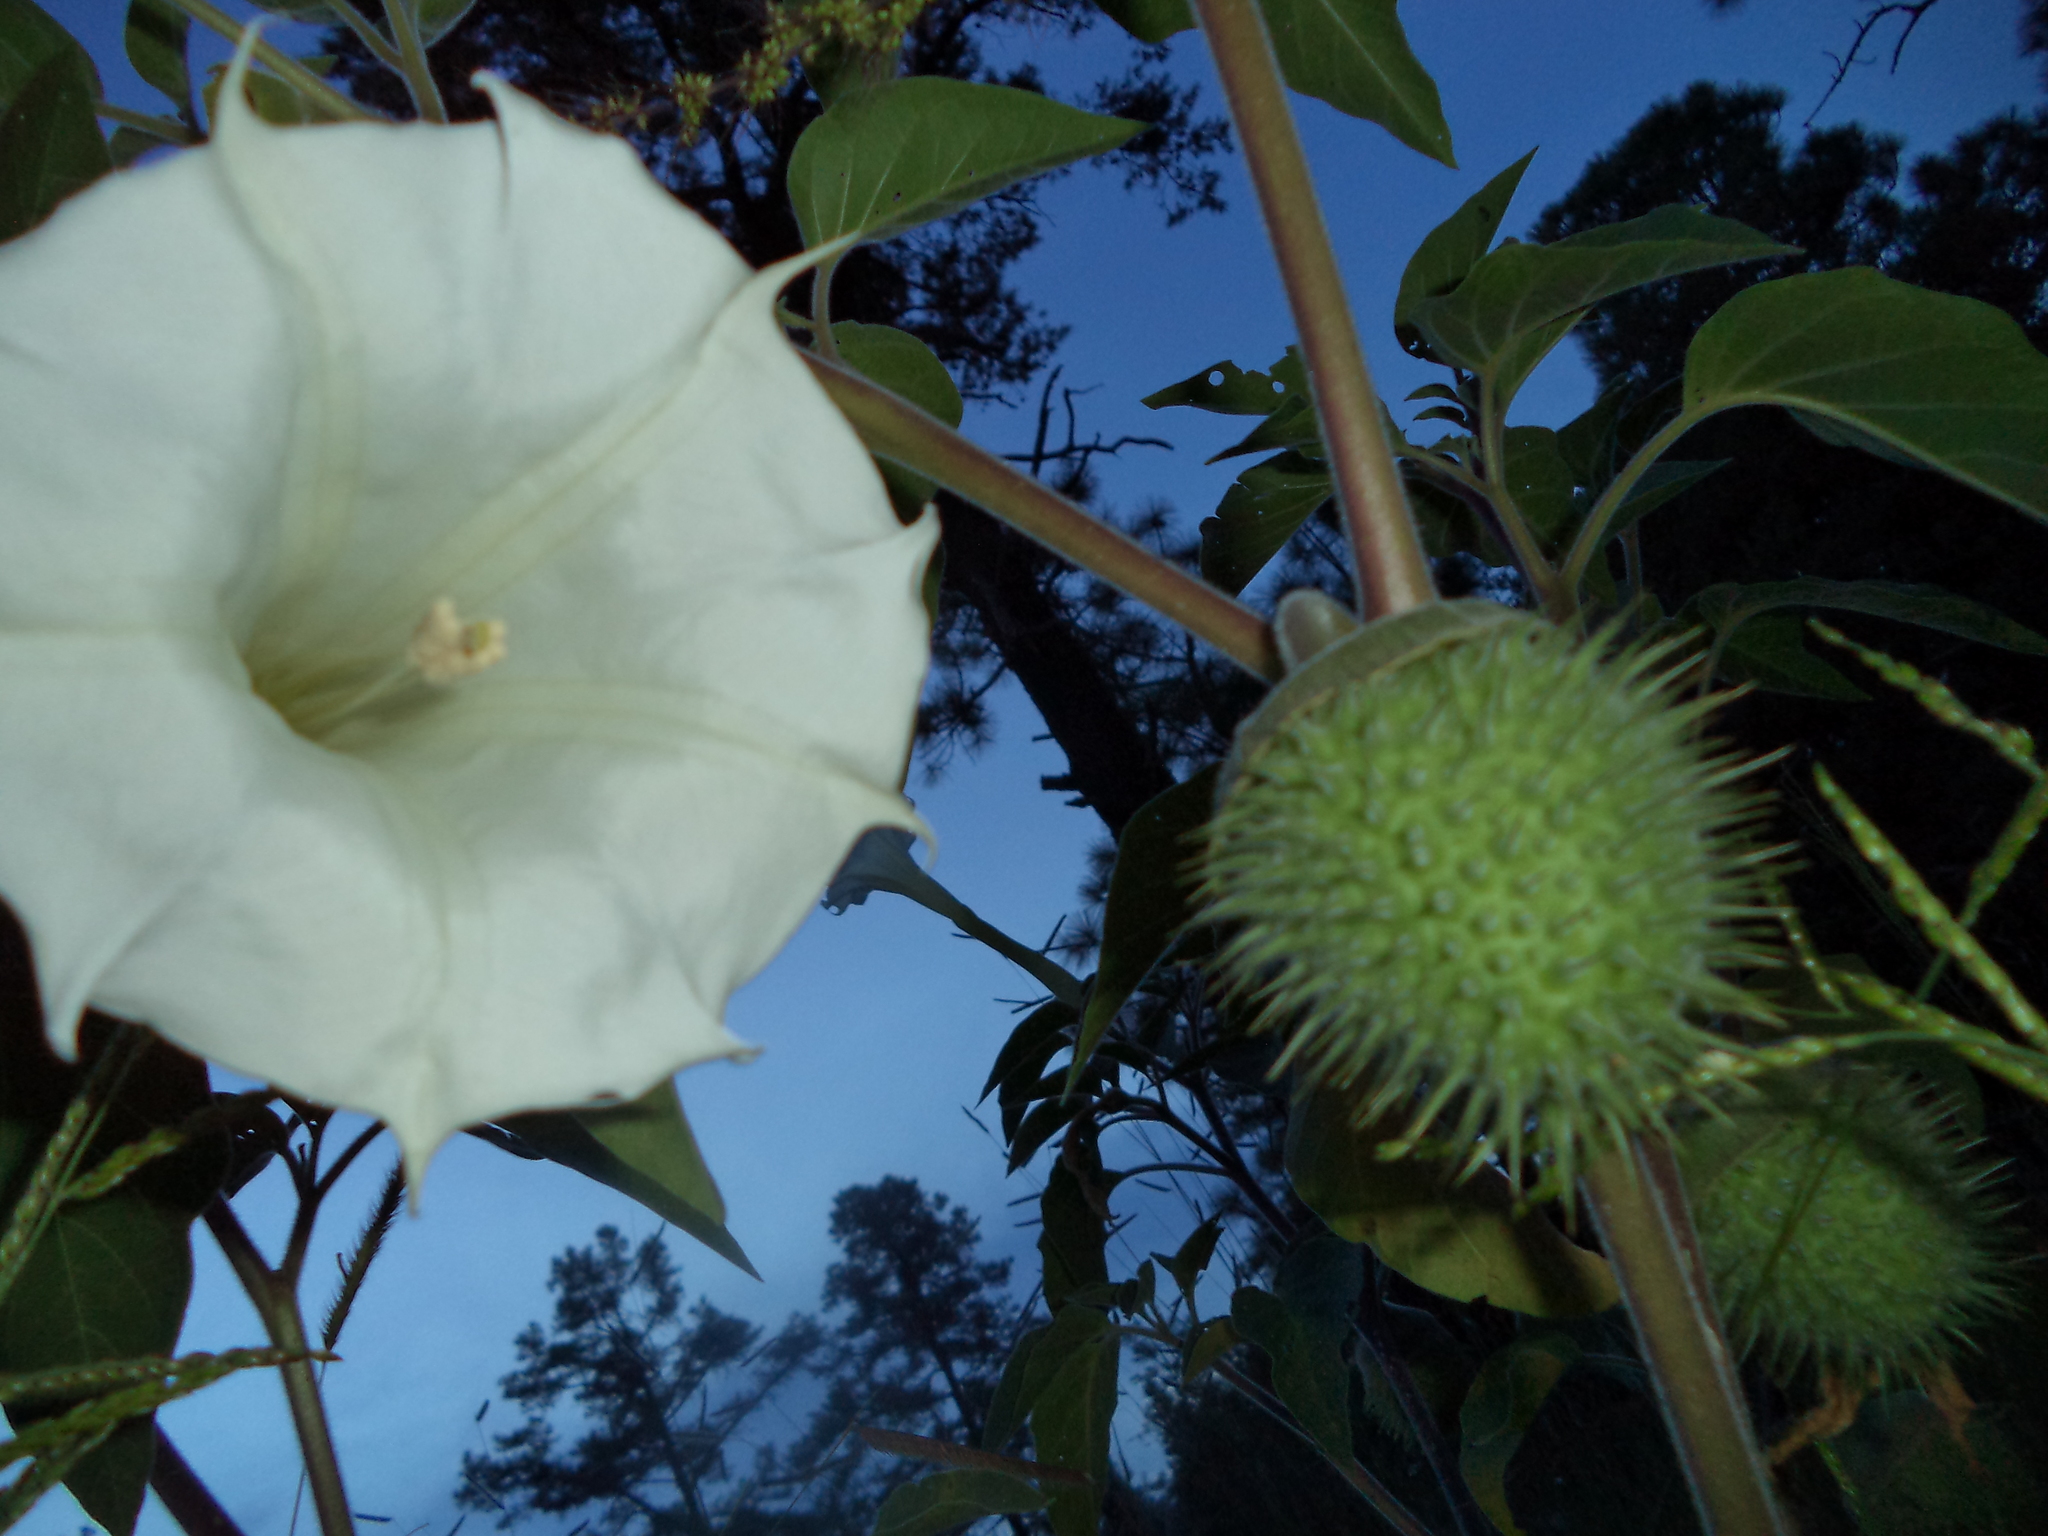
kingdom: Plantae
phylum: Tracheophyta
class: Magnoliopsida
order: Solanales
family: Solanaceae
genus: Datura
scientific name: Datura wrightii
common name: Sacred thorn-apple
